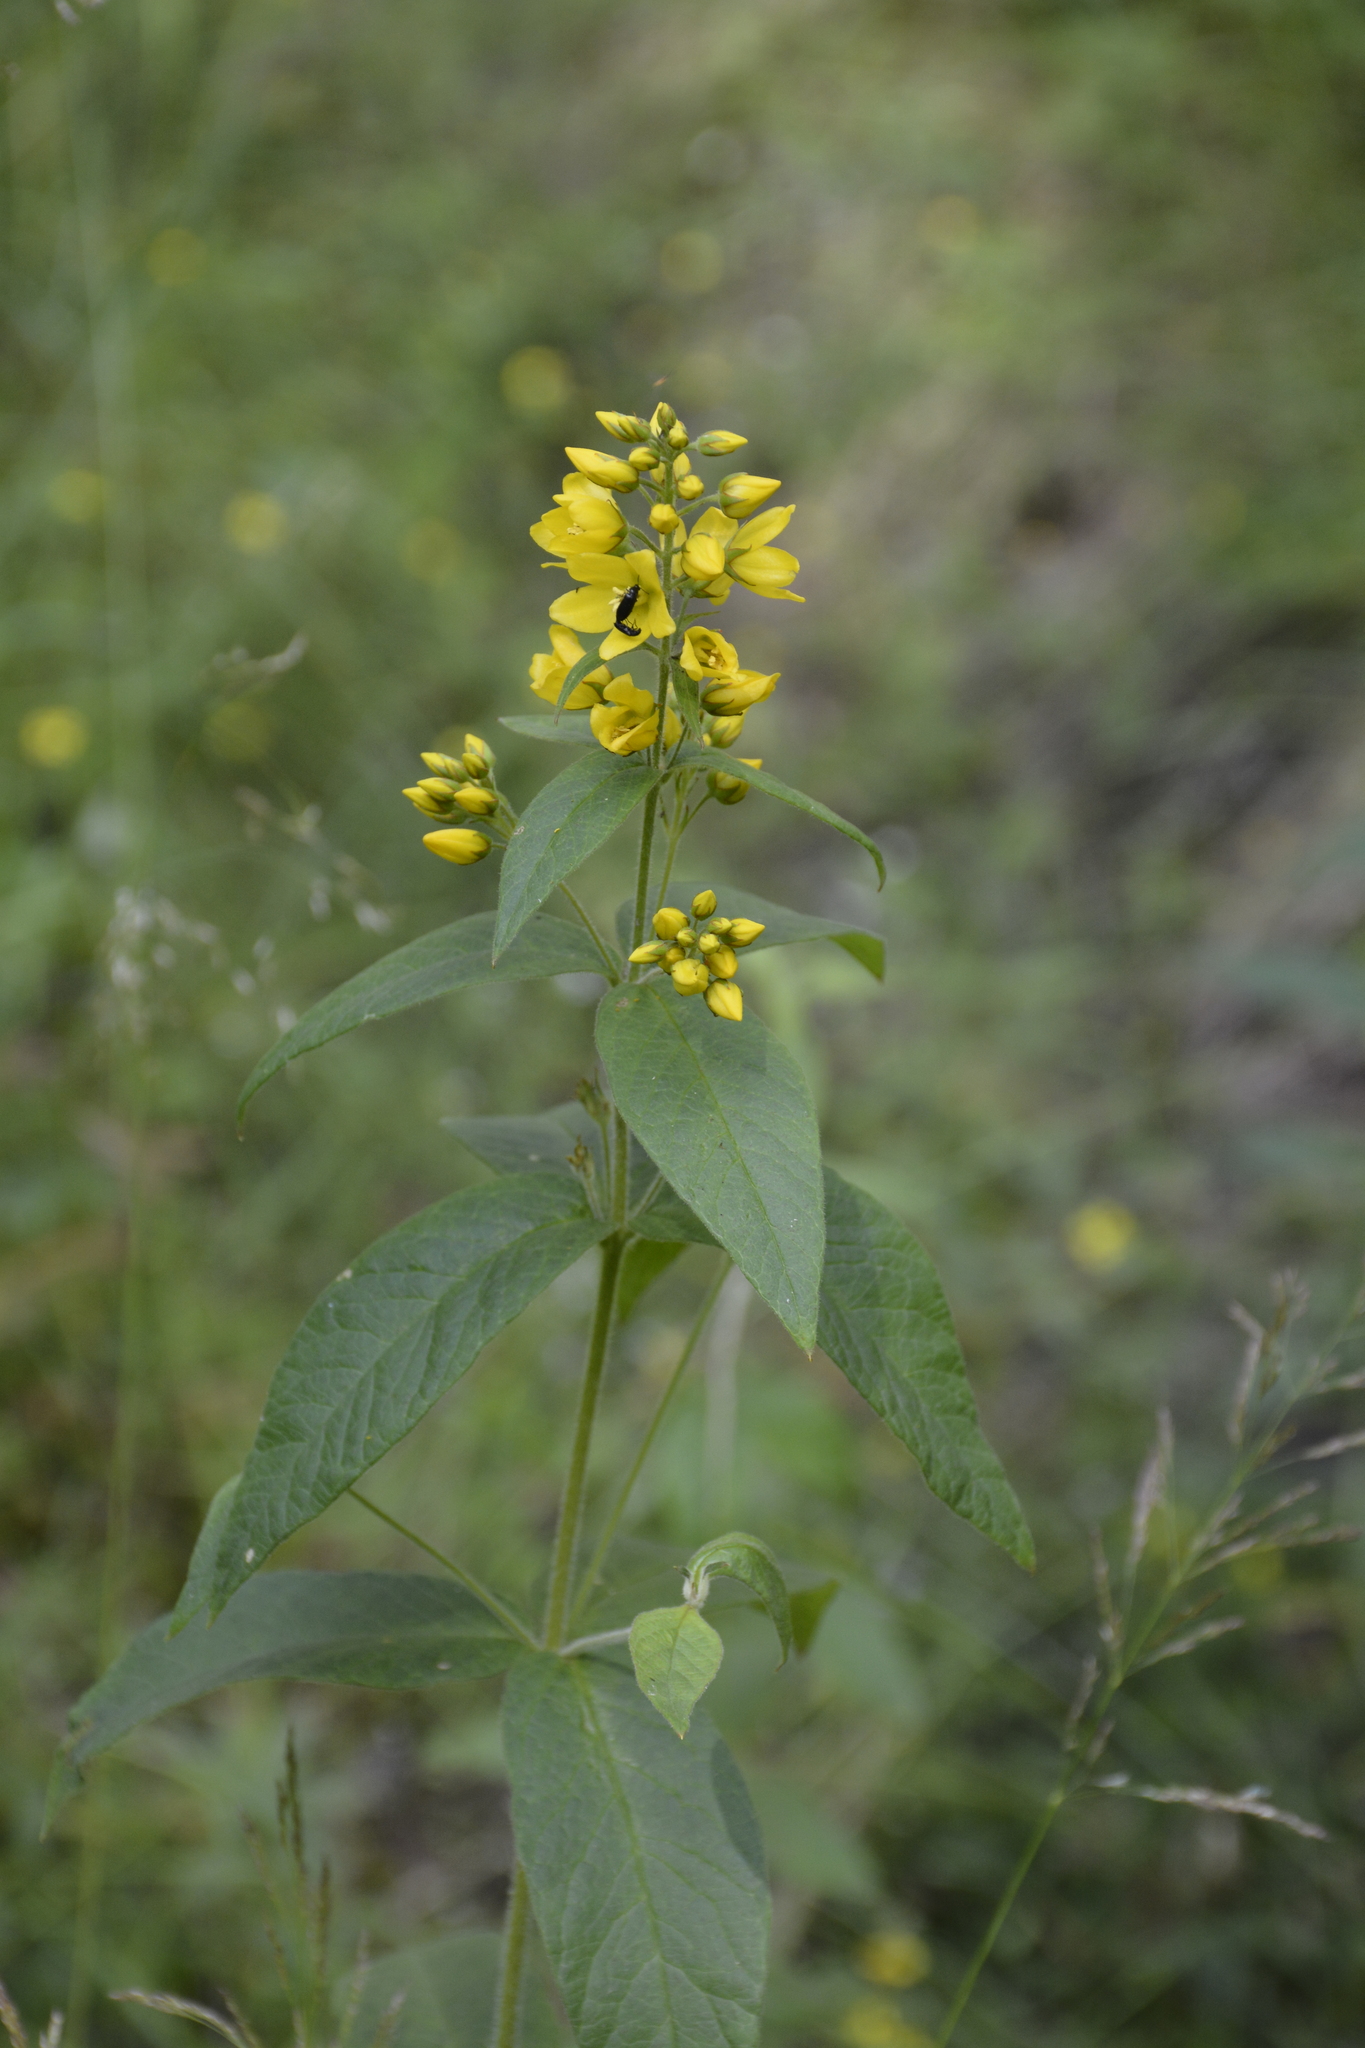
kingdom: Plantae
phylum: Tracheophyta
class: Magnoliopsida
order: Ericales
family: Primulaceae
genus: Lysimachia
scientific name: Lysimachia vulgaris
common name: Yellow loosestrife
